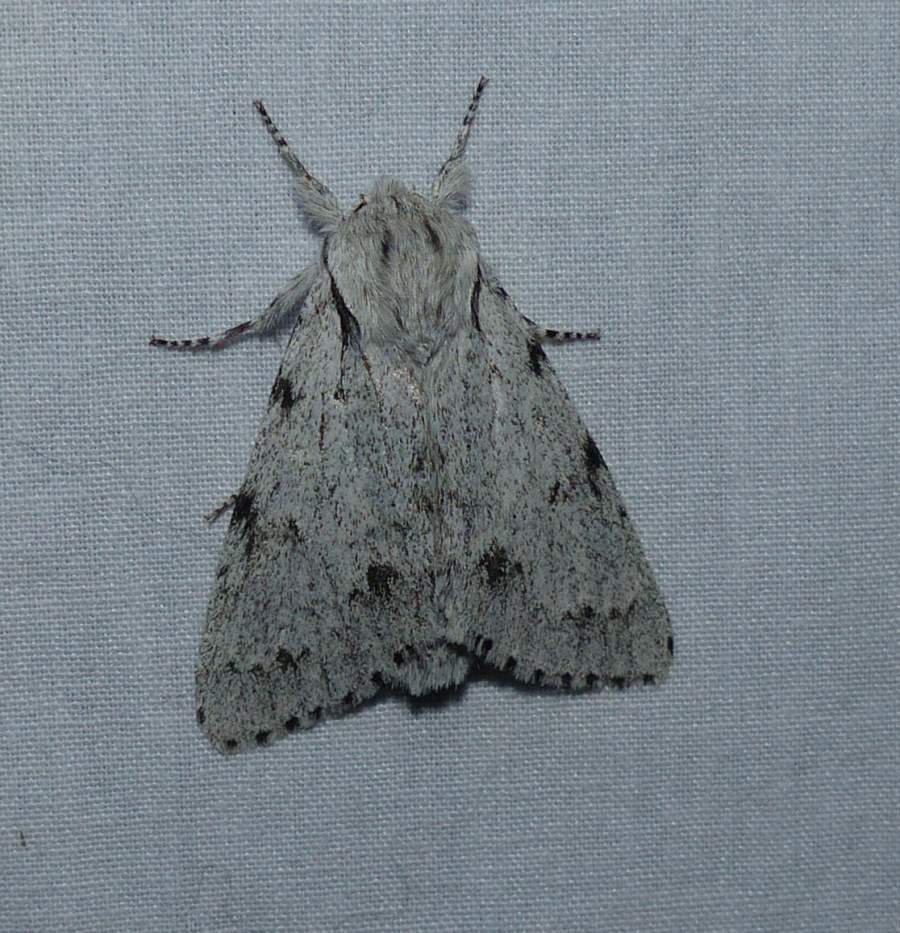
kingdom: Animalia
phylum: Arthropoda
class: Insecta
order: Lepidoptera
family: Noctuidae
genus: Acronicta
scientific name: Acronicta lepusculina
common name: Cottonwood dagger
